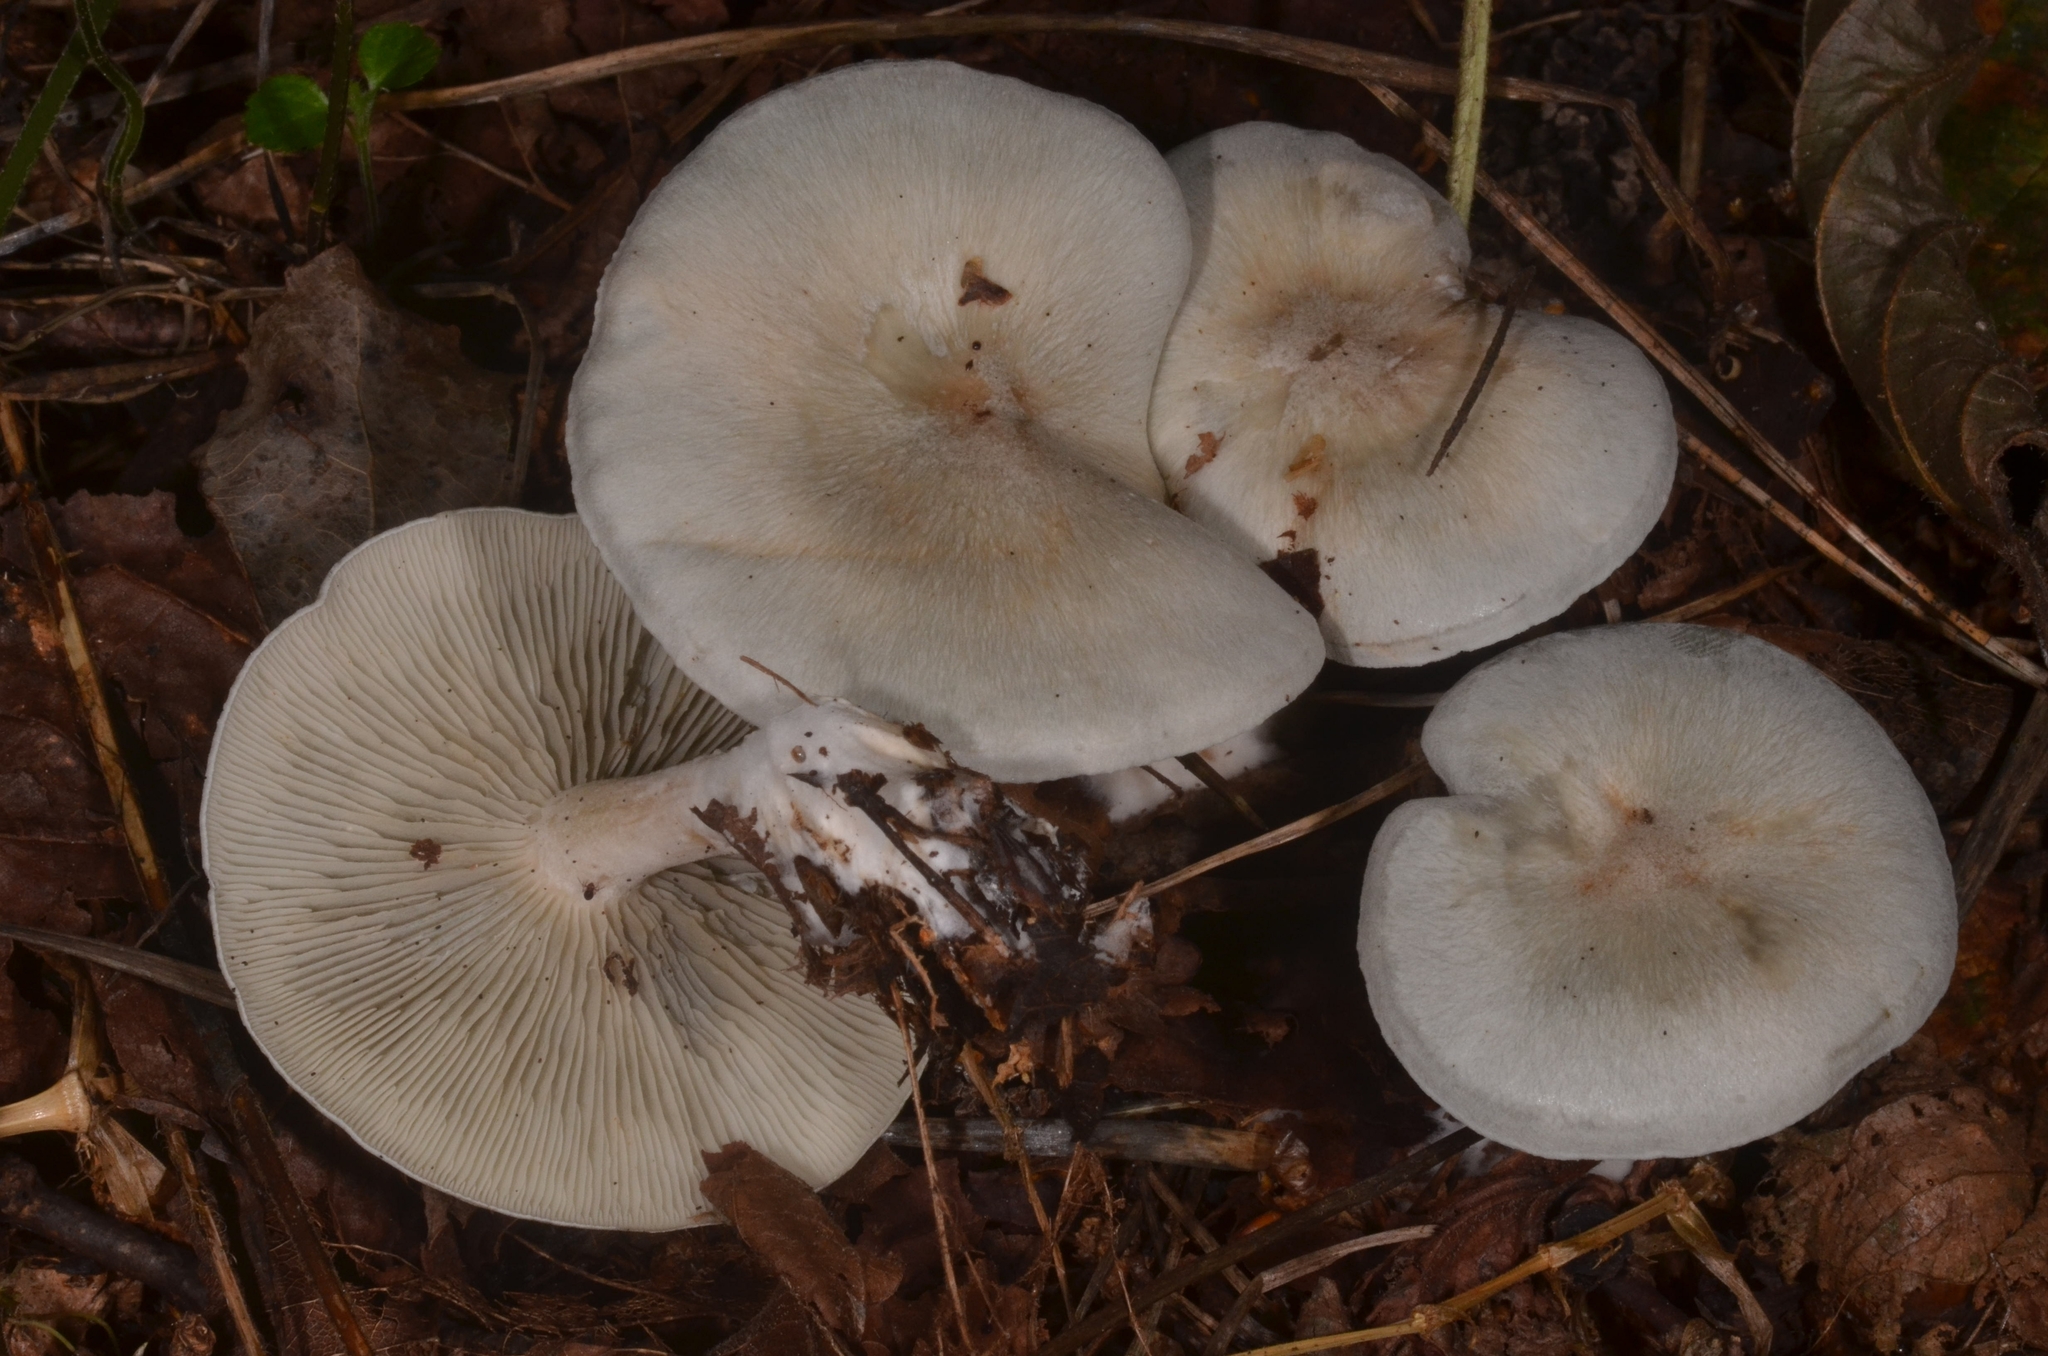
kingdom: Fungi
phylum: Basidiomycota
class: Agaricomycetes
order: Agaricales
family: Tricholomataceae
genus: Collybia
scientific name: Collybia
